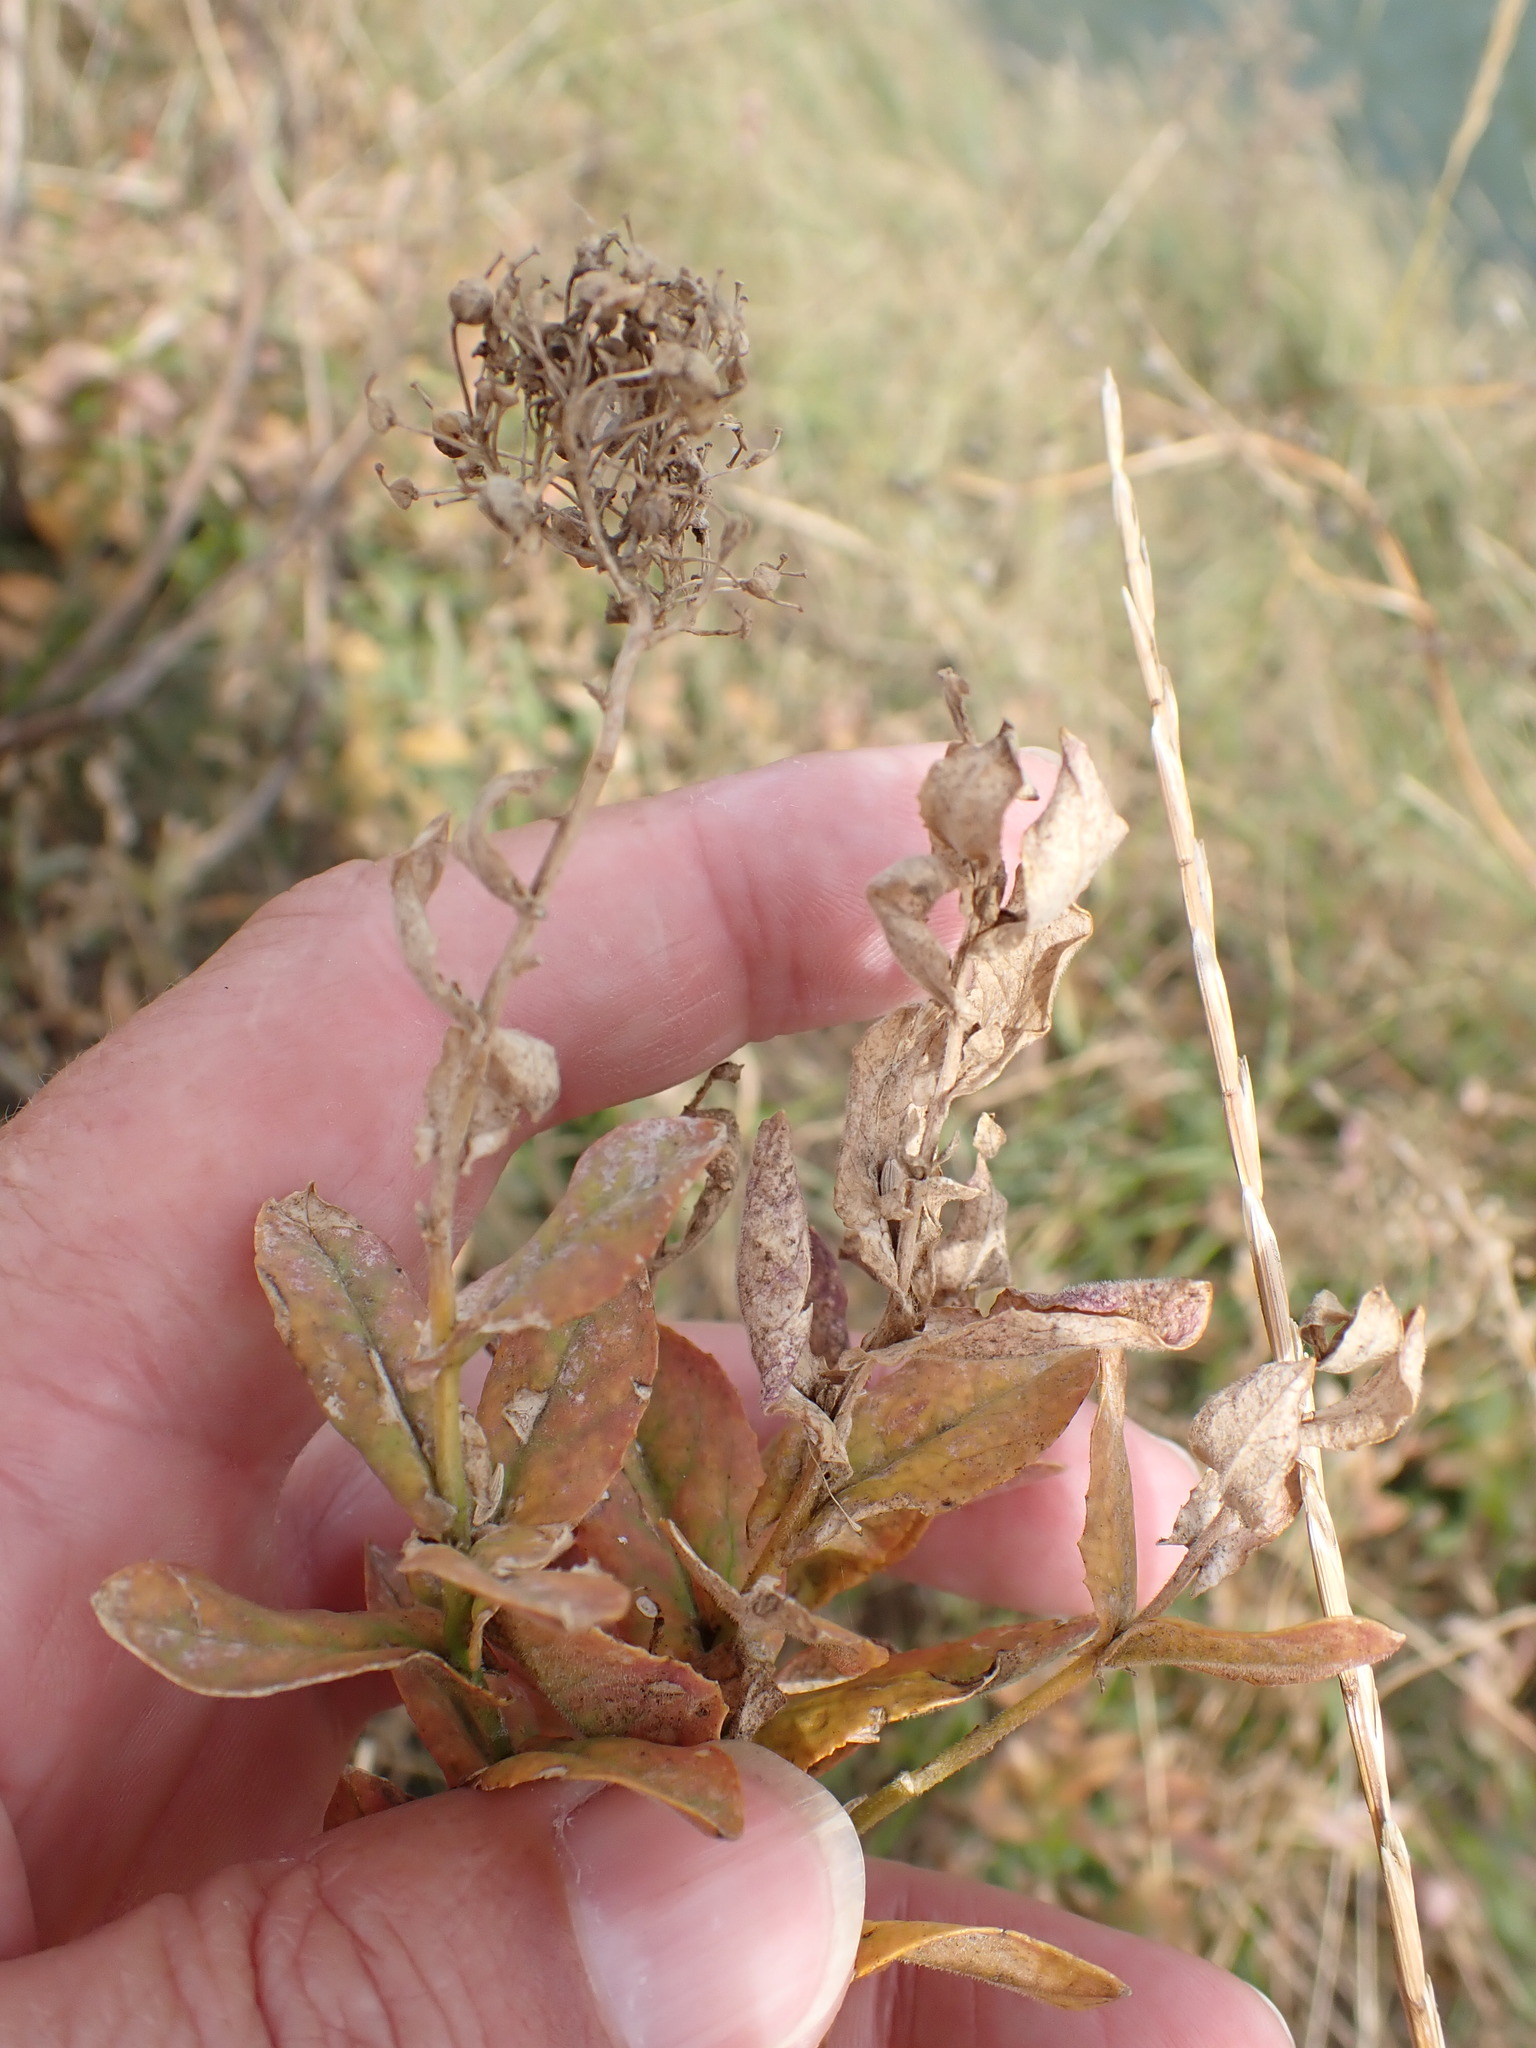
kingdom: Plantae
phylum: Tracheophyta
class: Magnoliopsida
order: Brassicales
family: Brassicaceae
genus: Lepidium
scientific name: Lepidium draba
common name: Hoary cress
